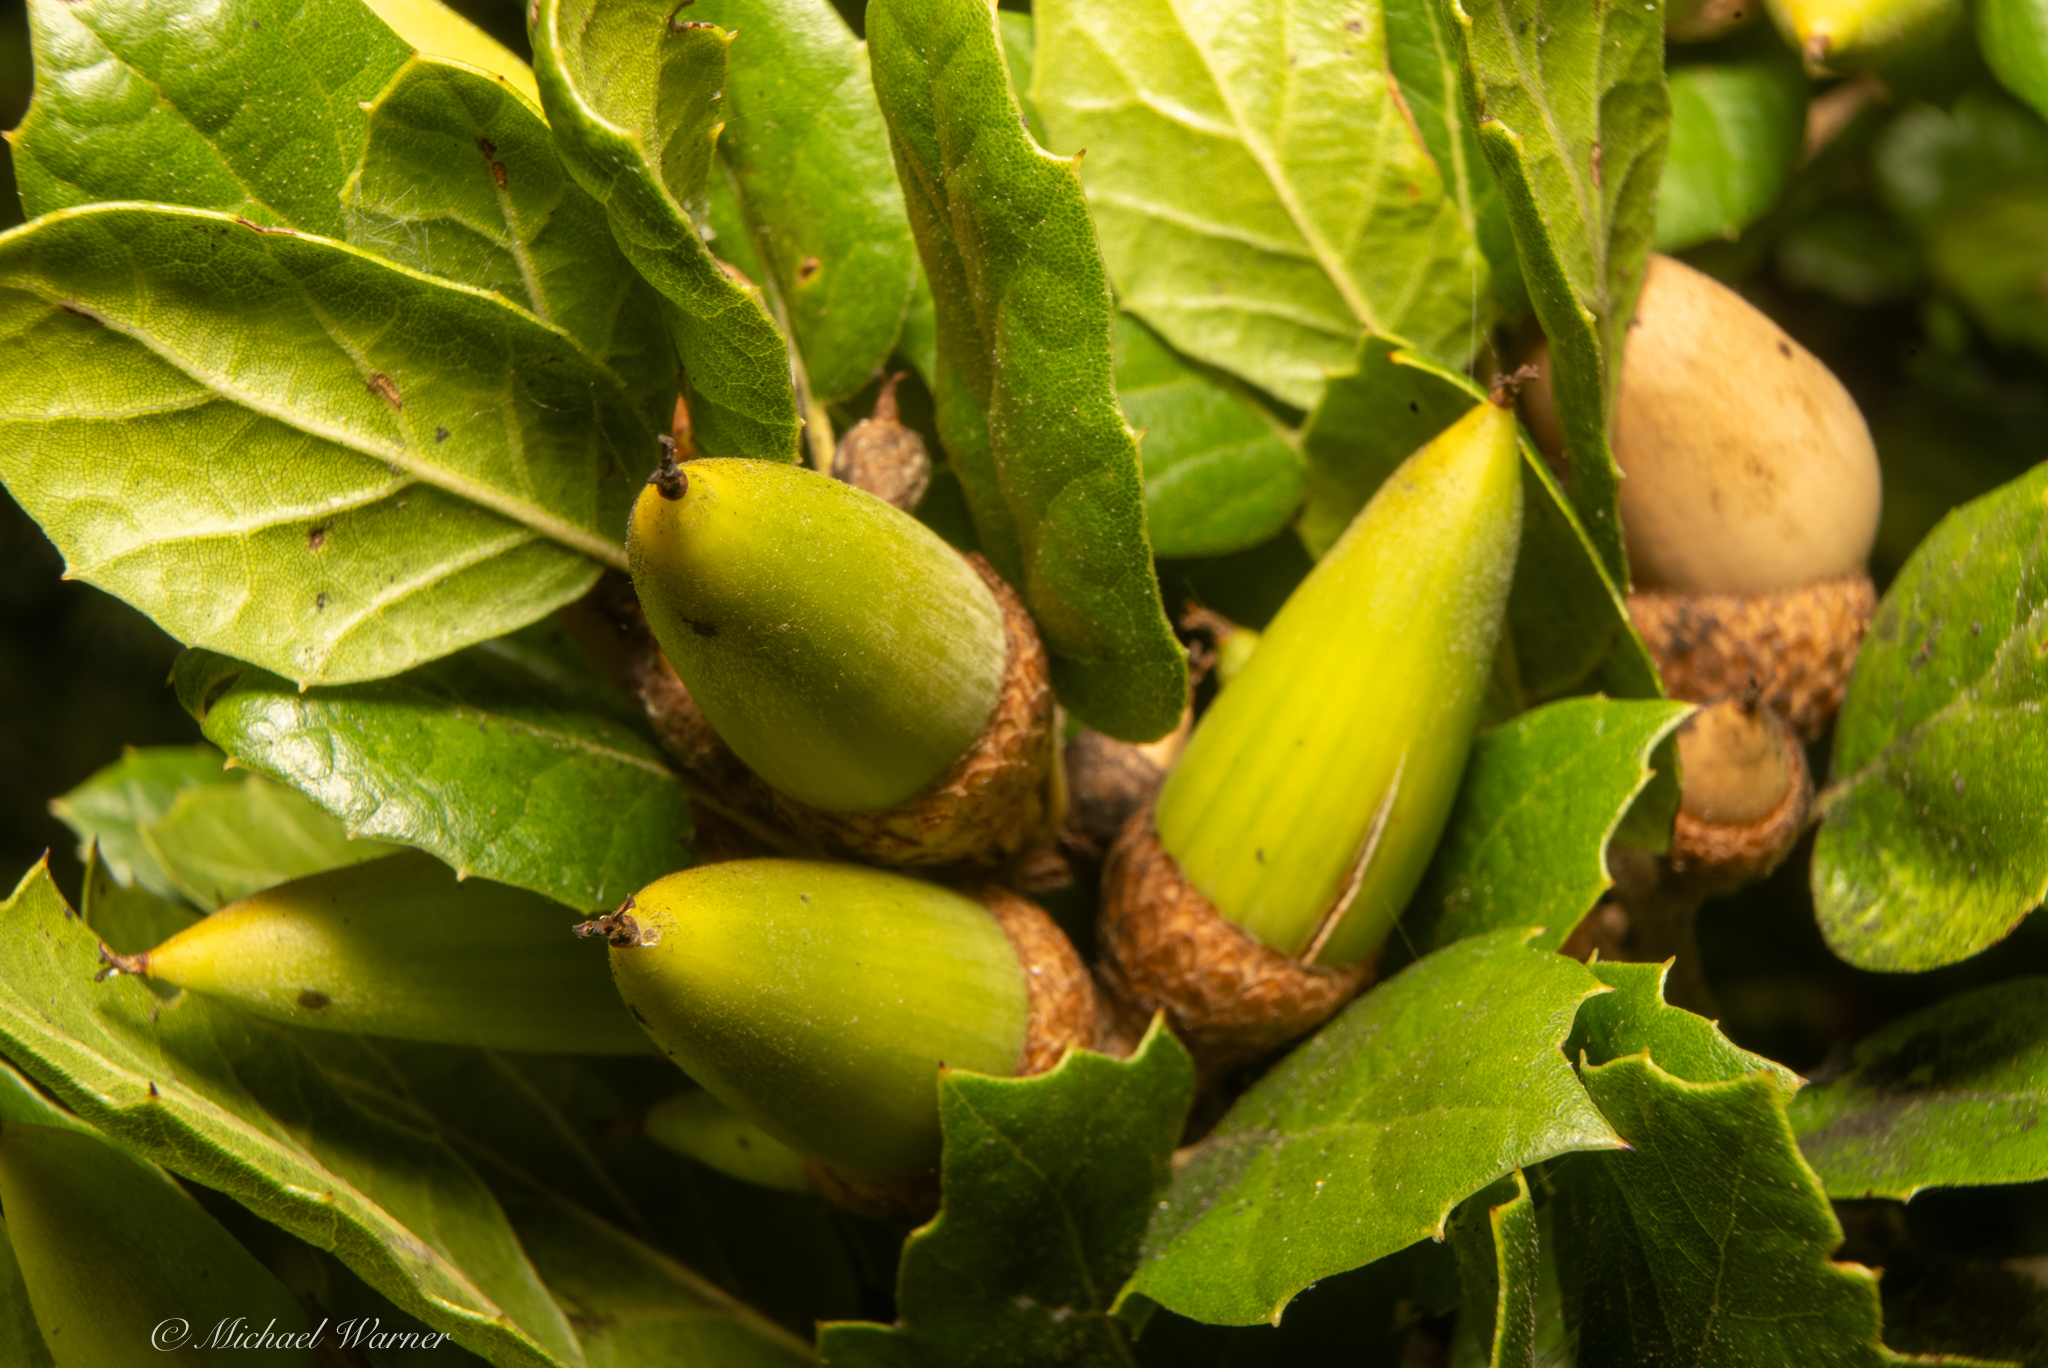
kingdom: Plantae
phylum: Tracheophyta
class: Magnoliopsida
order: Fagales
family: Fagaceae
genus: Quercus
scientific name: Quercus agrifolia
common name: California live oak
